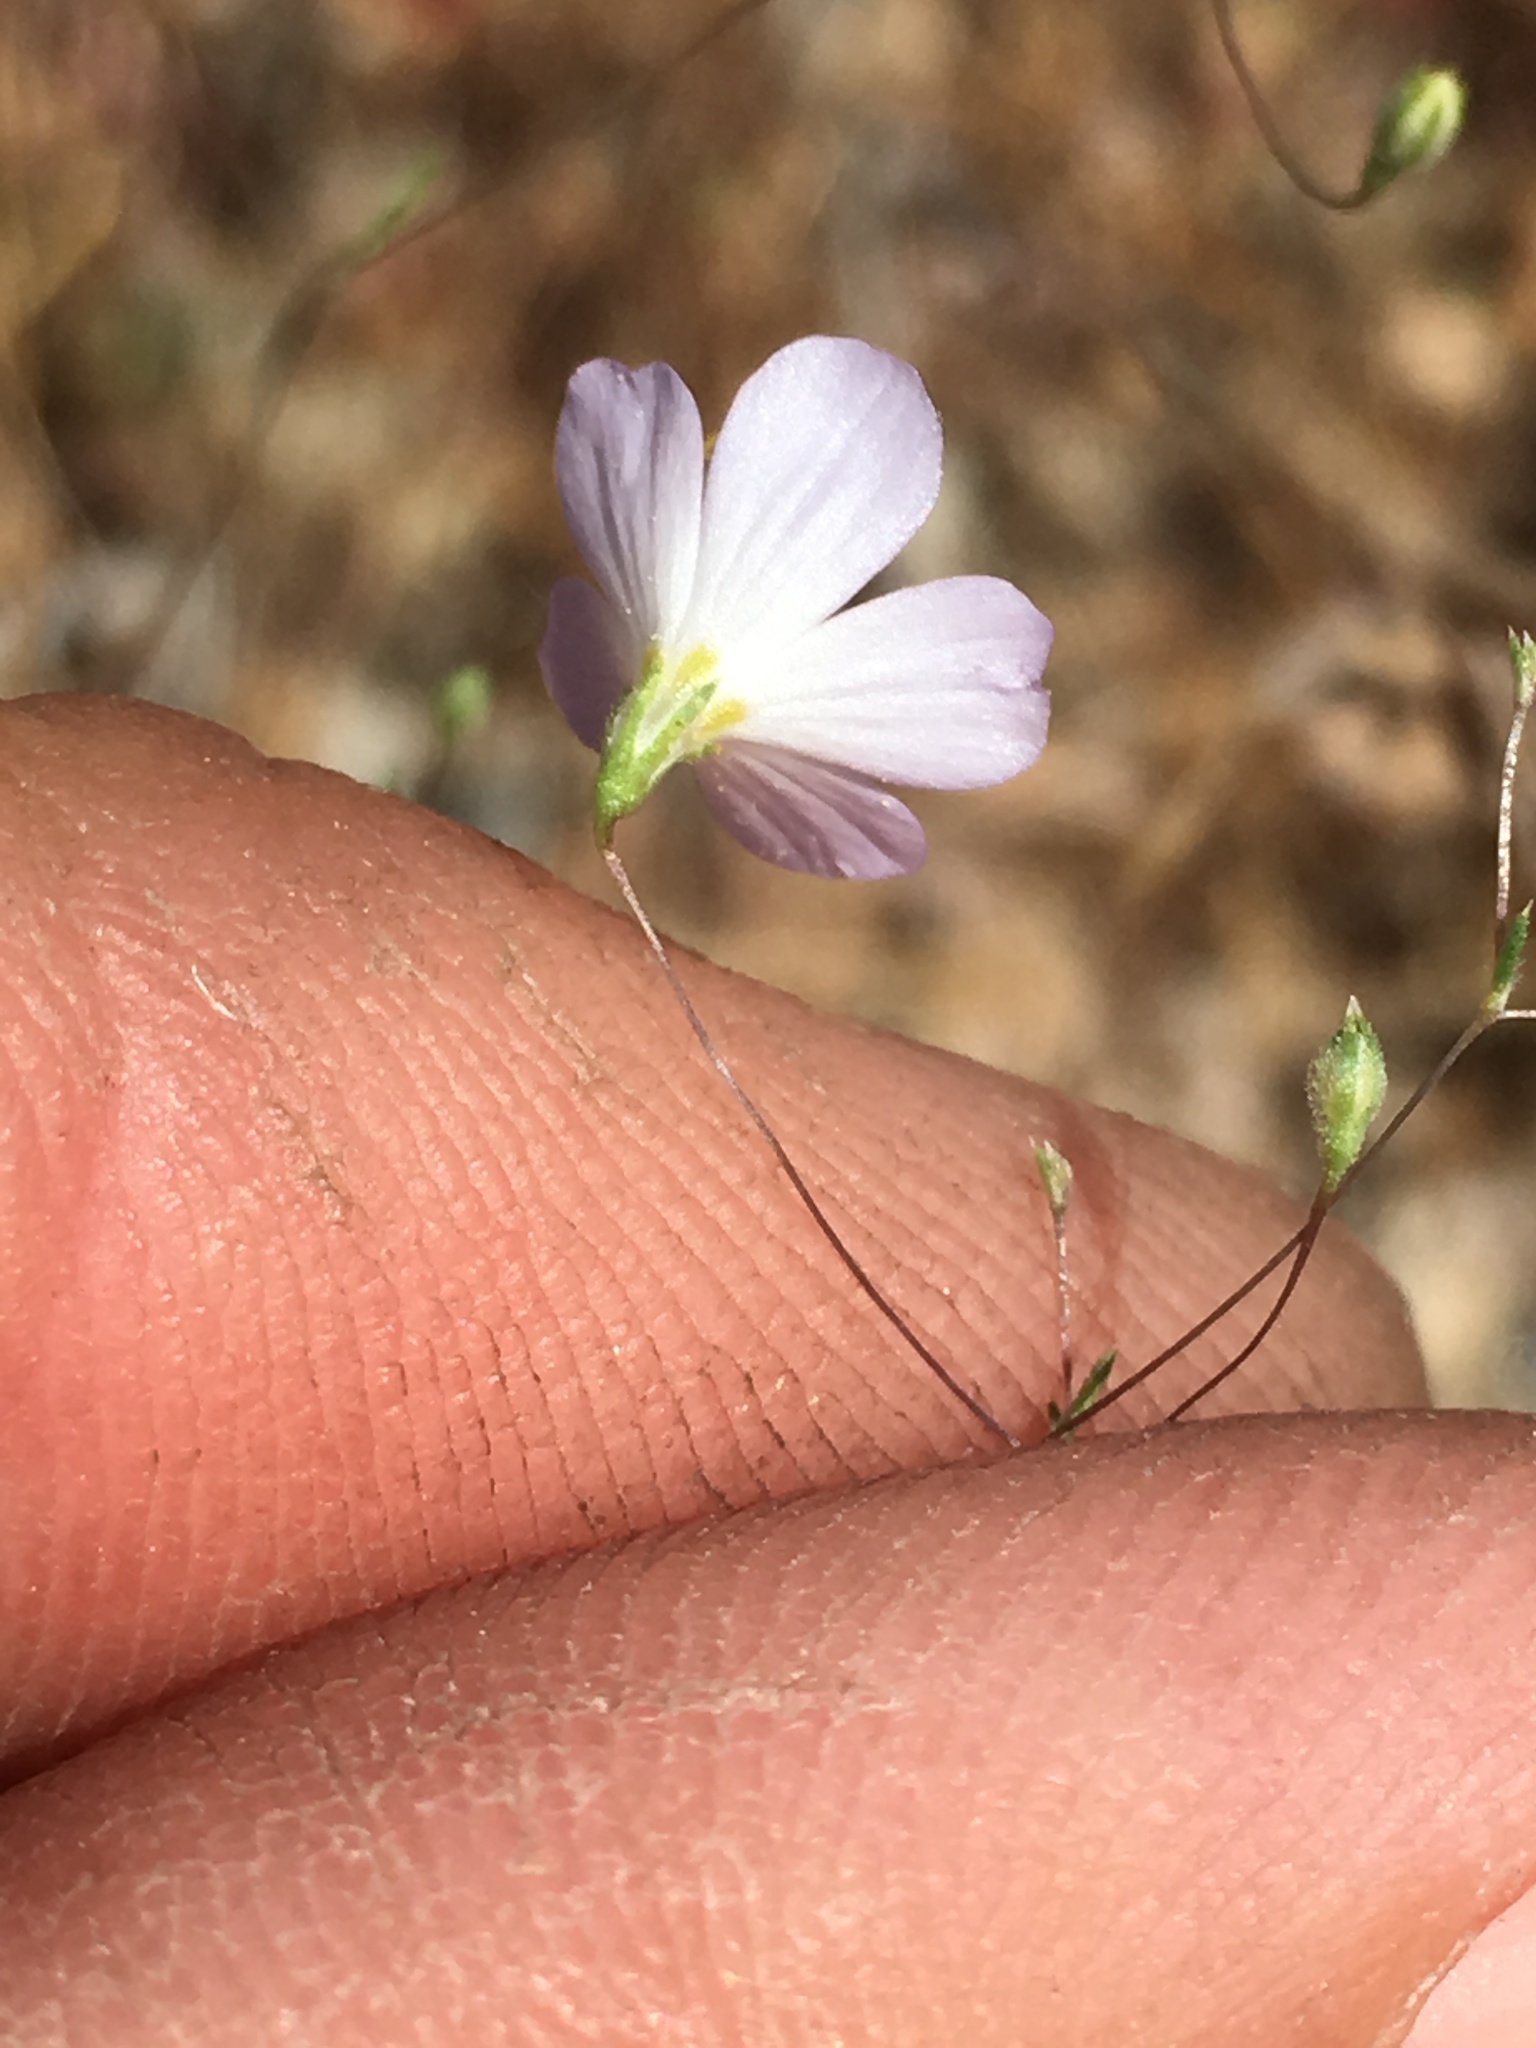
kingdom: Plantae
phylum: Tracheophyta
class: Magnoliopsida
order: Ericales
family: Polemoniaceae
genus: Leptosiphon
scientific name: Leptosiphon liniflorus
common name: Narrowflower flaxflower
